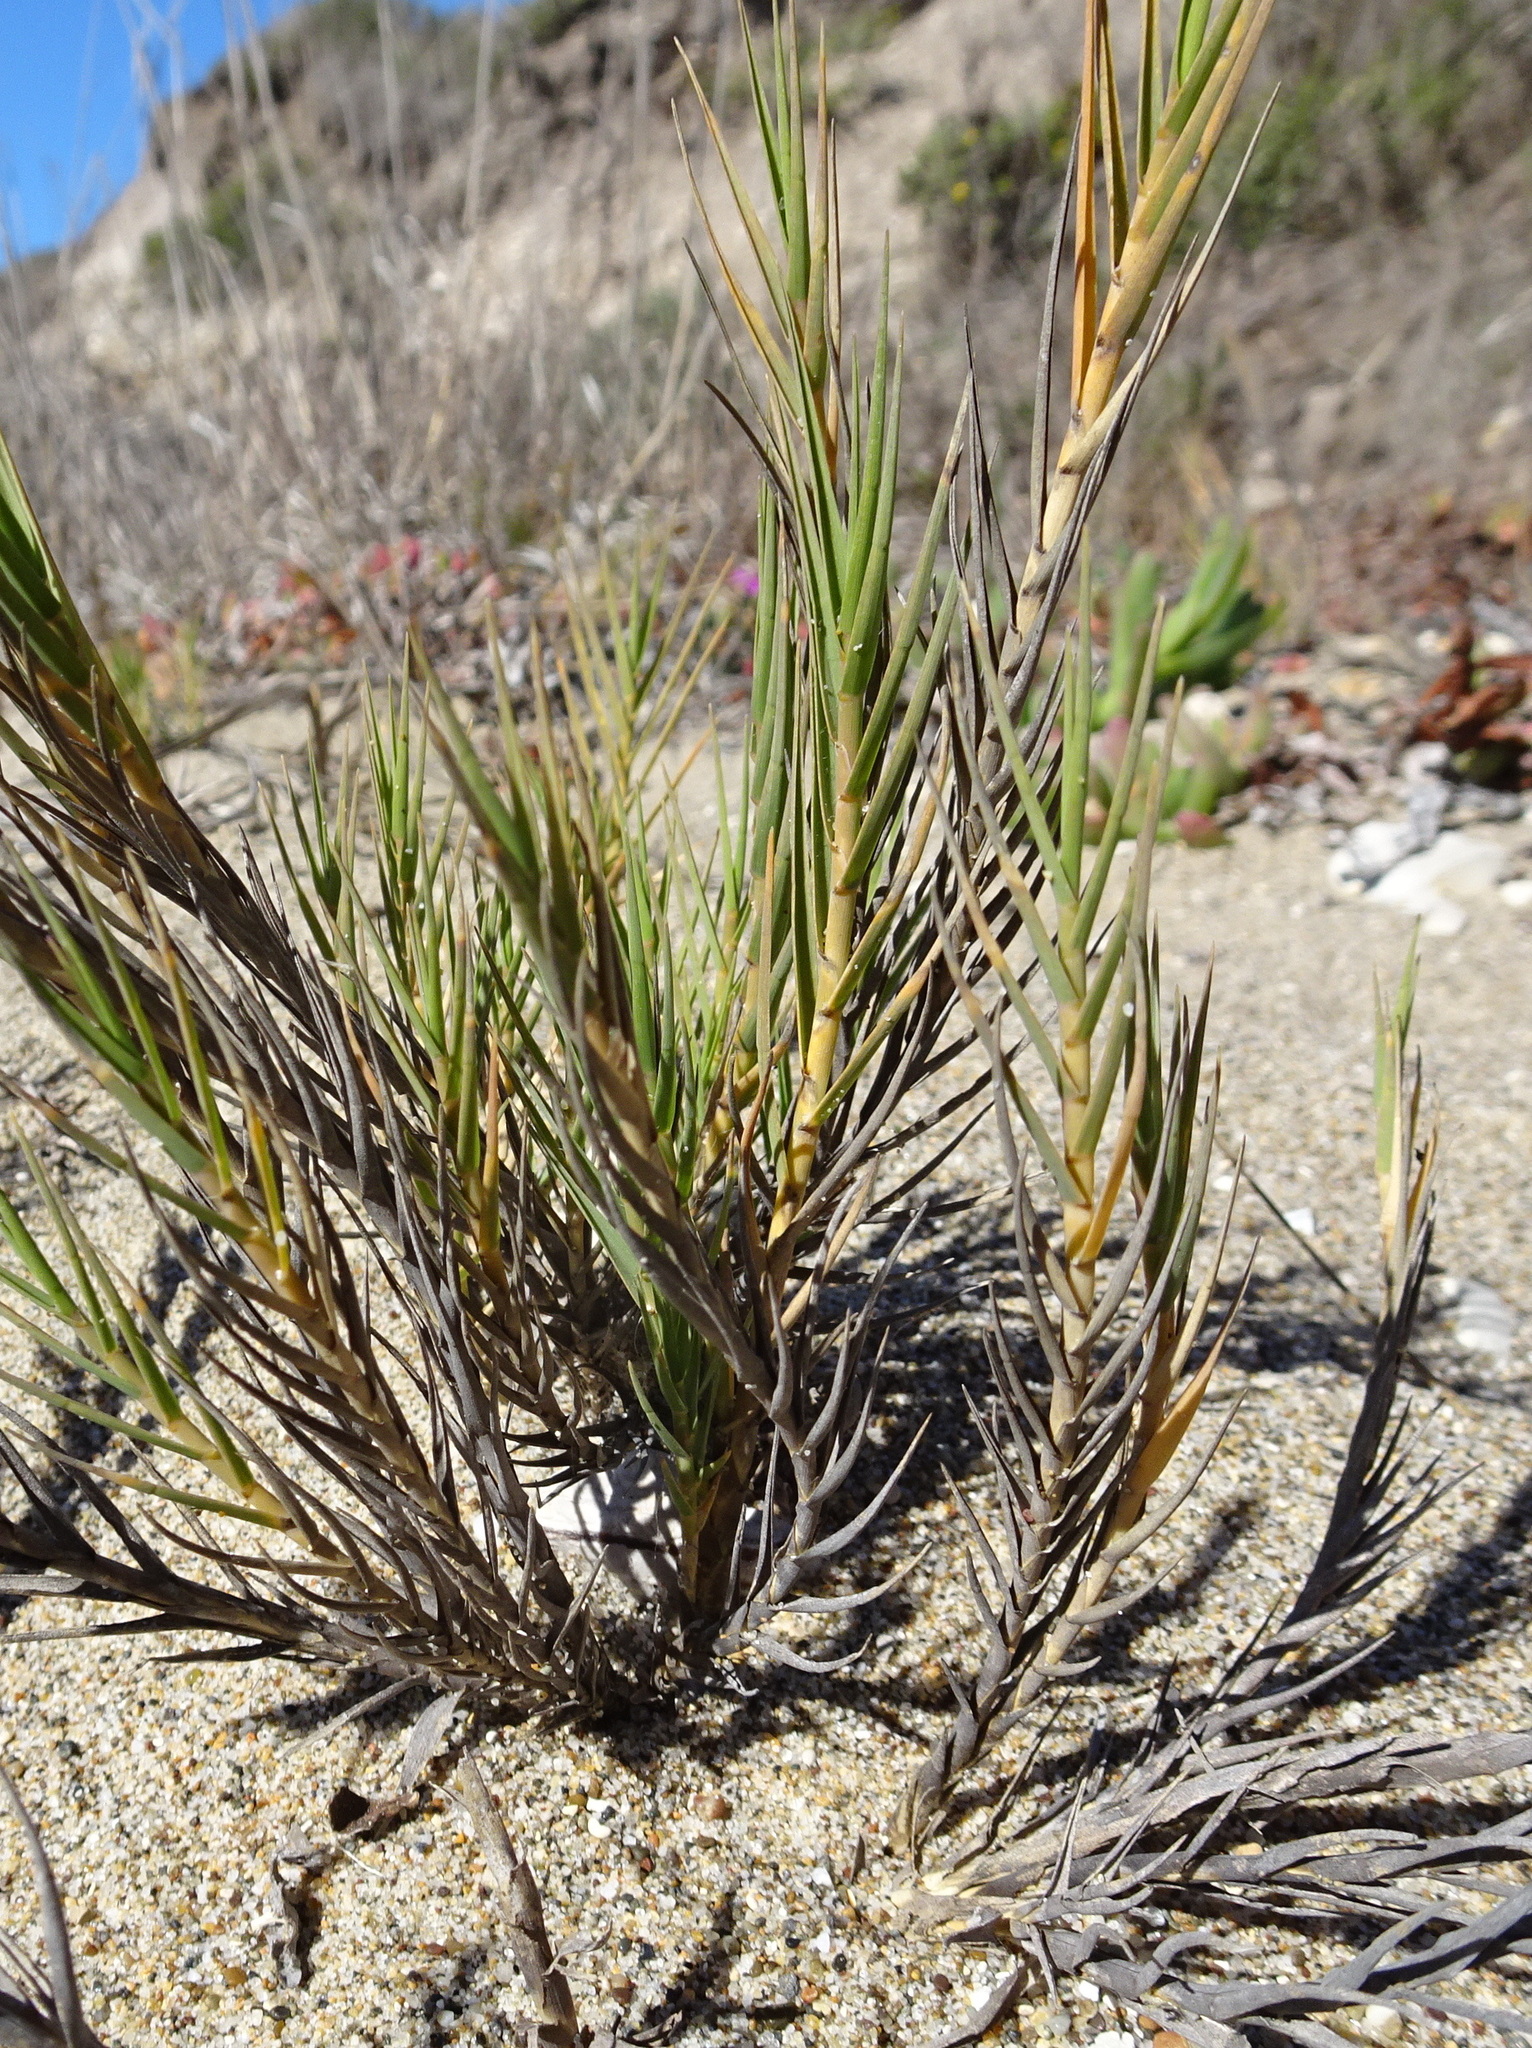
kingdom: Plantae
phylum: Tracheophyta
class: Liliopsida
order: Poales
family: Poaceae
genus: Distichlis
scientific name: Distichlis spicata
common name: Saltgrass
